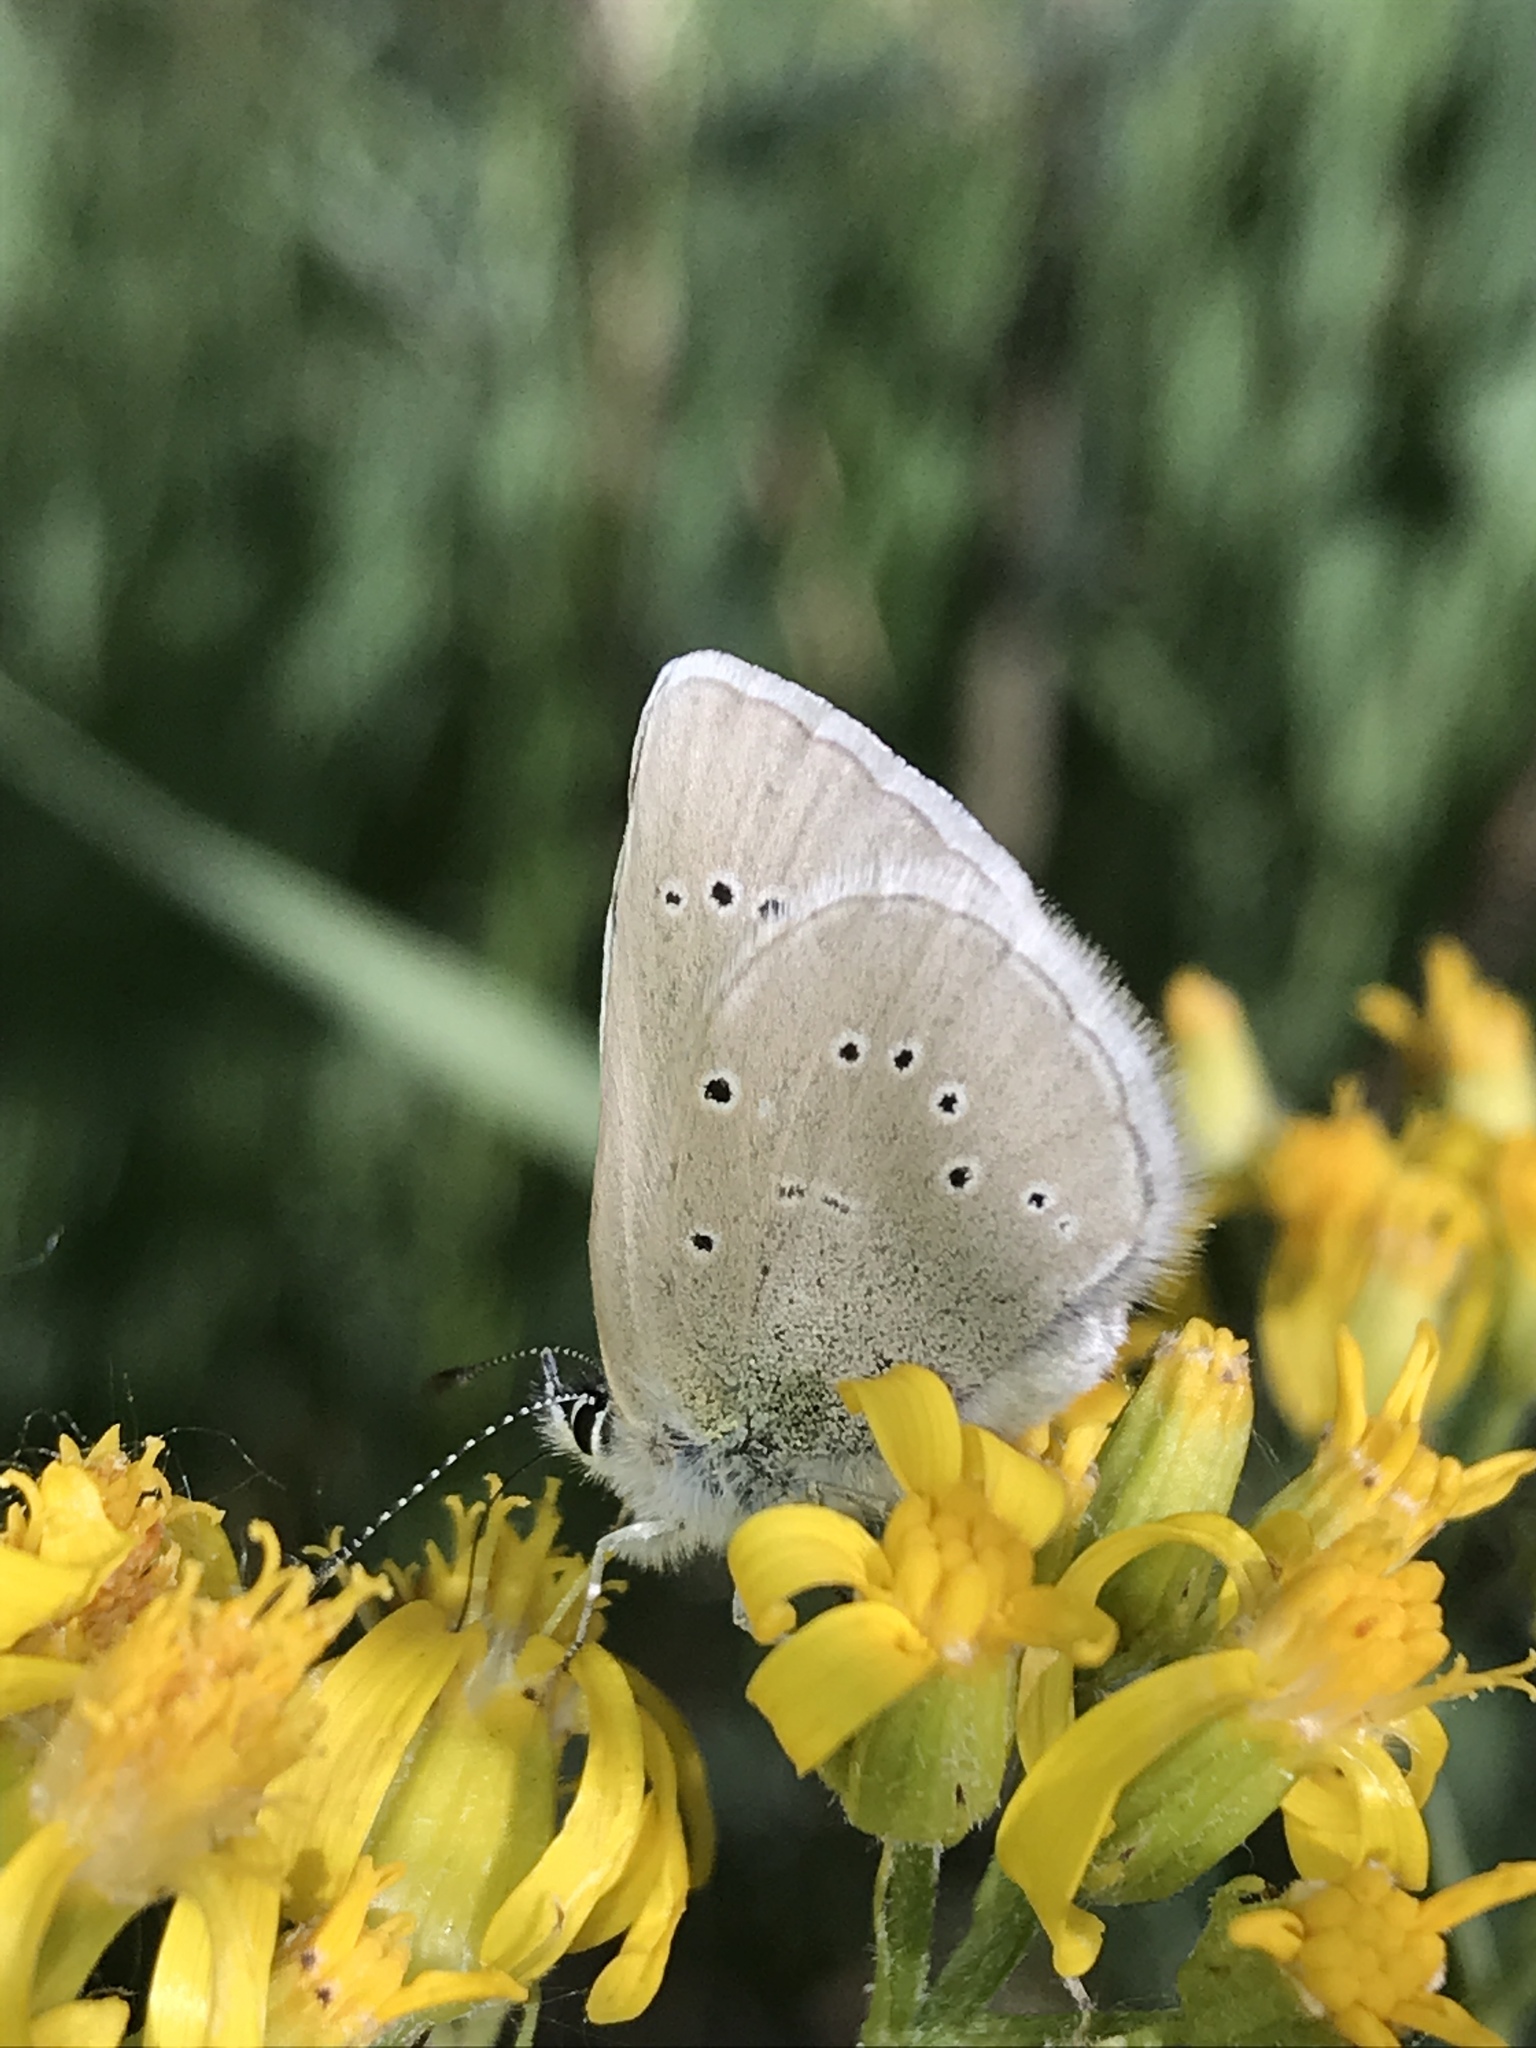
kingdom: Animalia
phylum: Arthropoda
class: Insecta
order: Lepidoptera
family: Lycaenidae
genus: Glaucopsyche
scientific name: Glaucopsyche lygdamus
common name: Silvery blue
